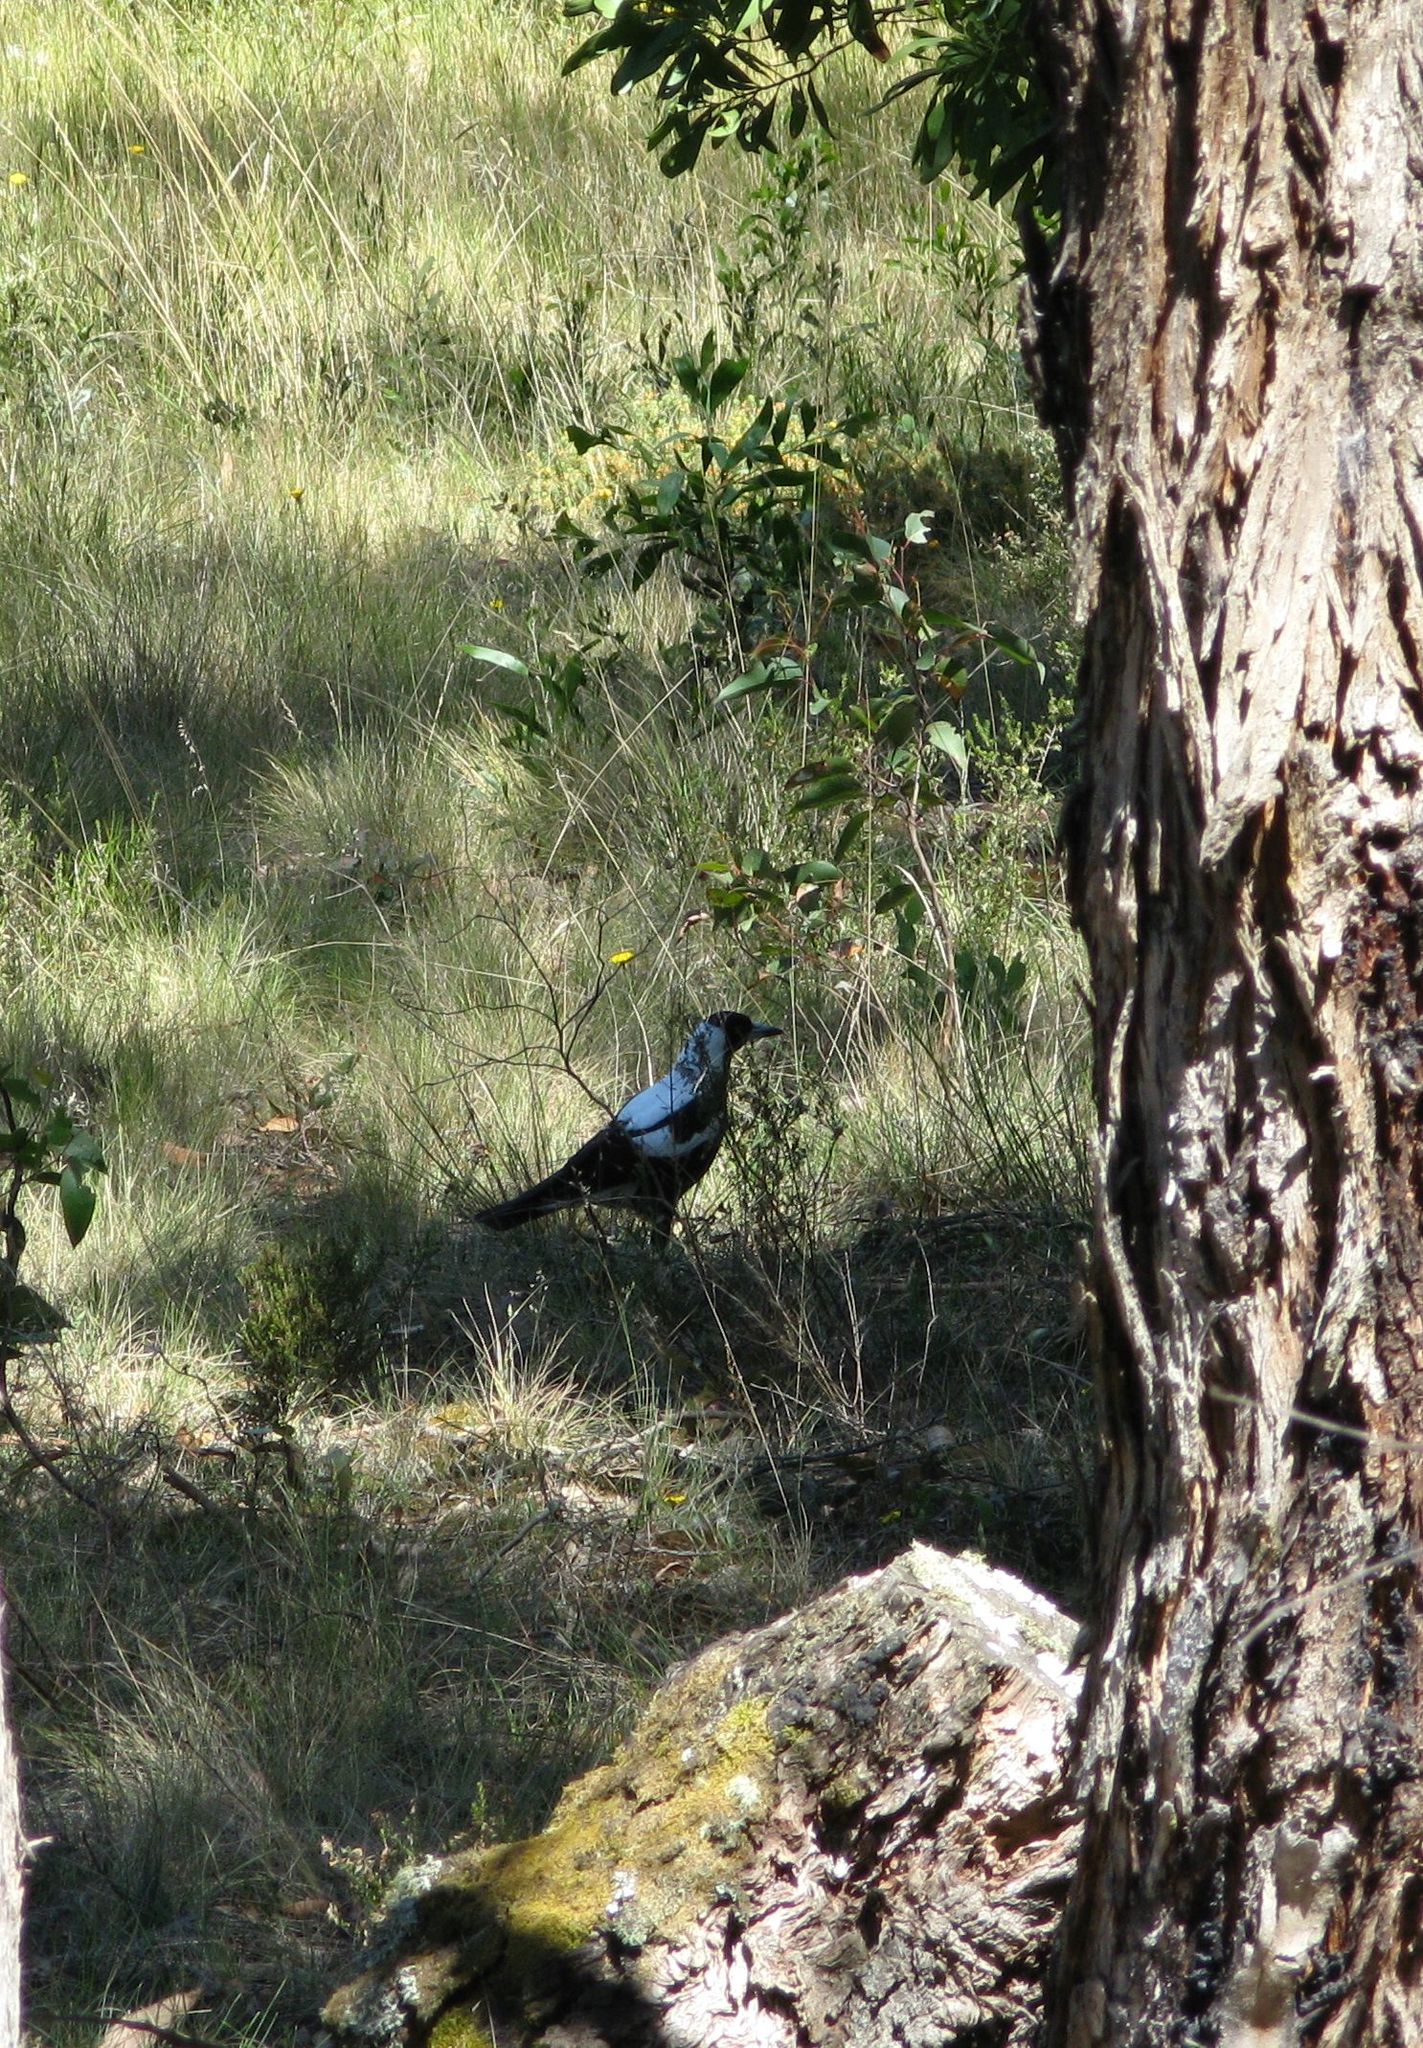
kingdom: Animalia
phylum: Chordata
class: Aves
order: Passeriformes
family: Cracticidae
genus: Gymnorhina
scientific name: Gymnorhina tibicen
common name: Australian magpie
